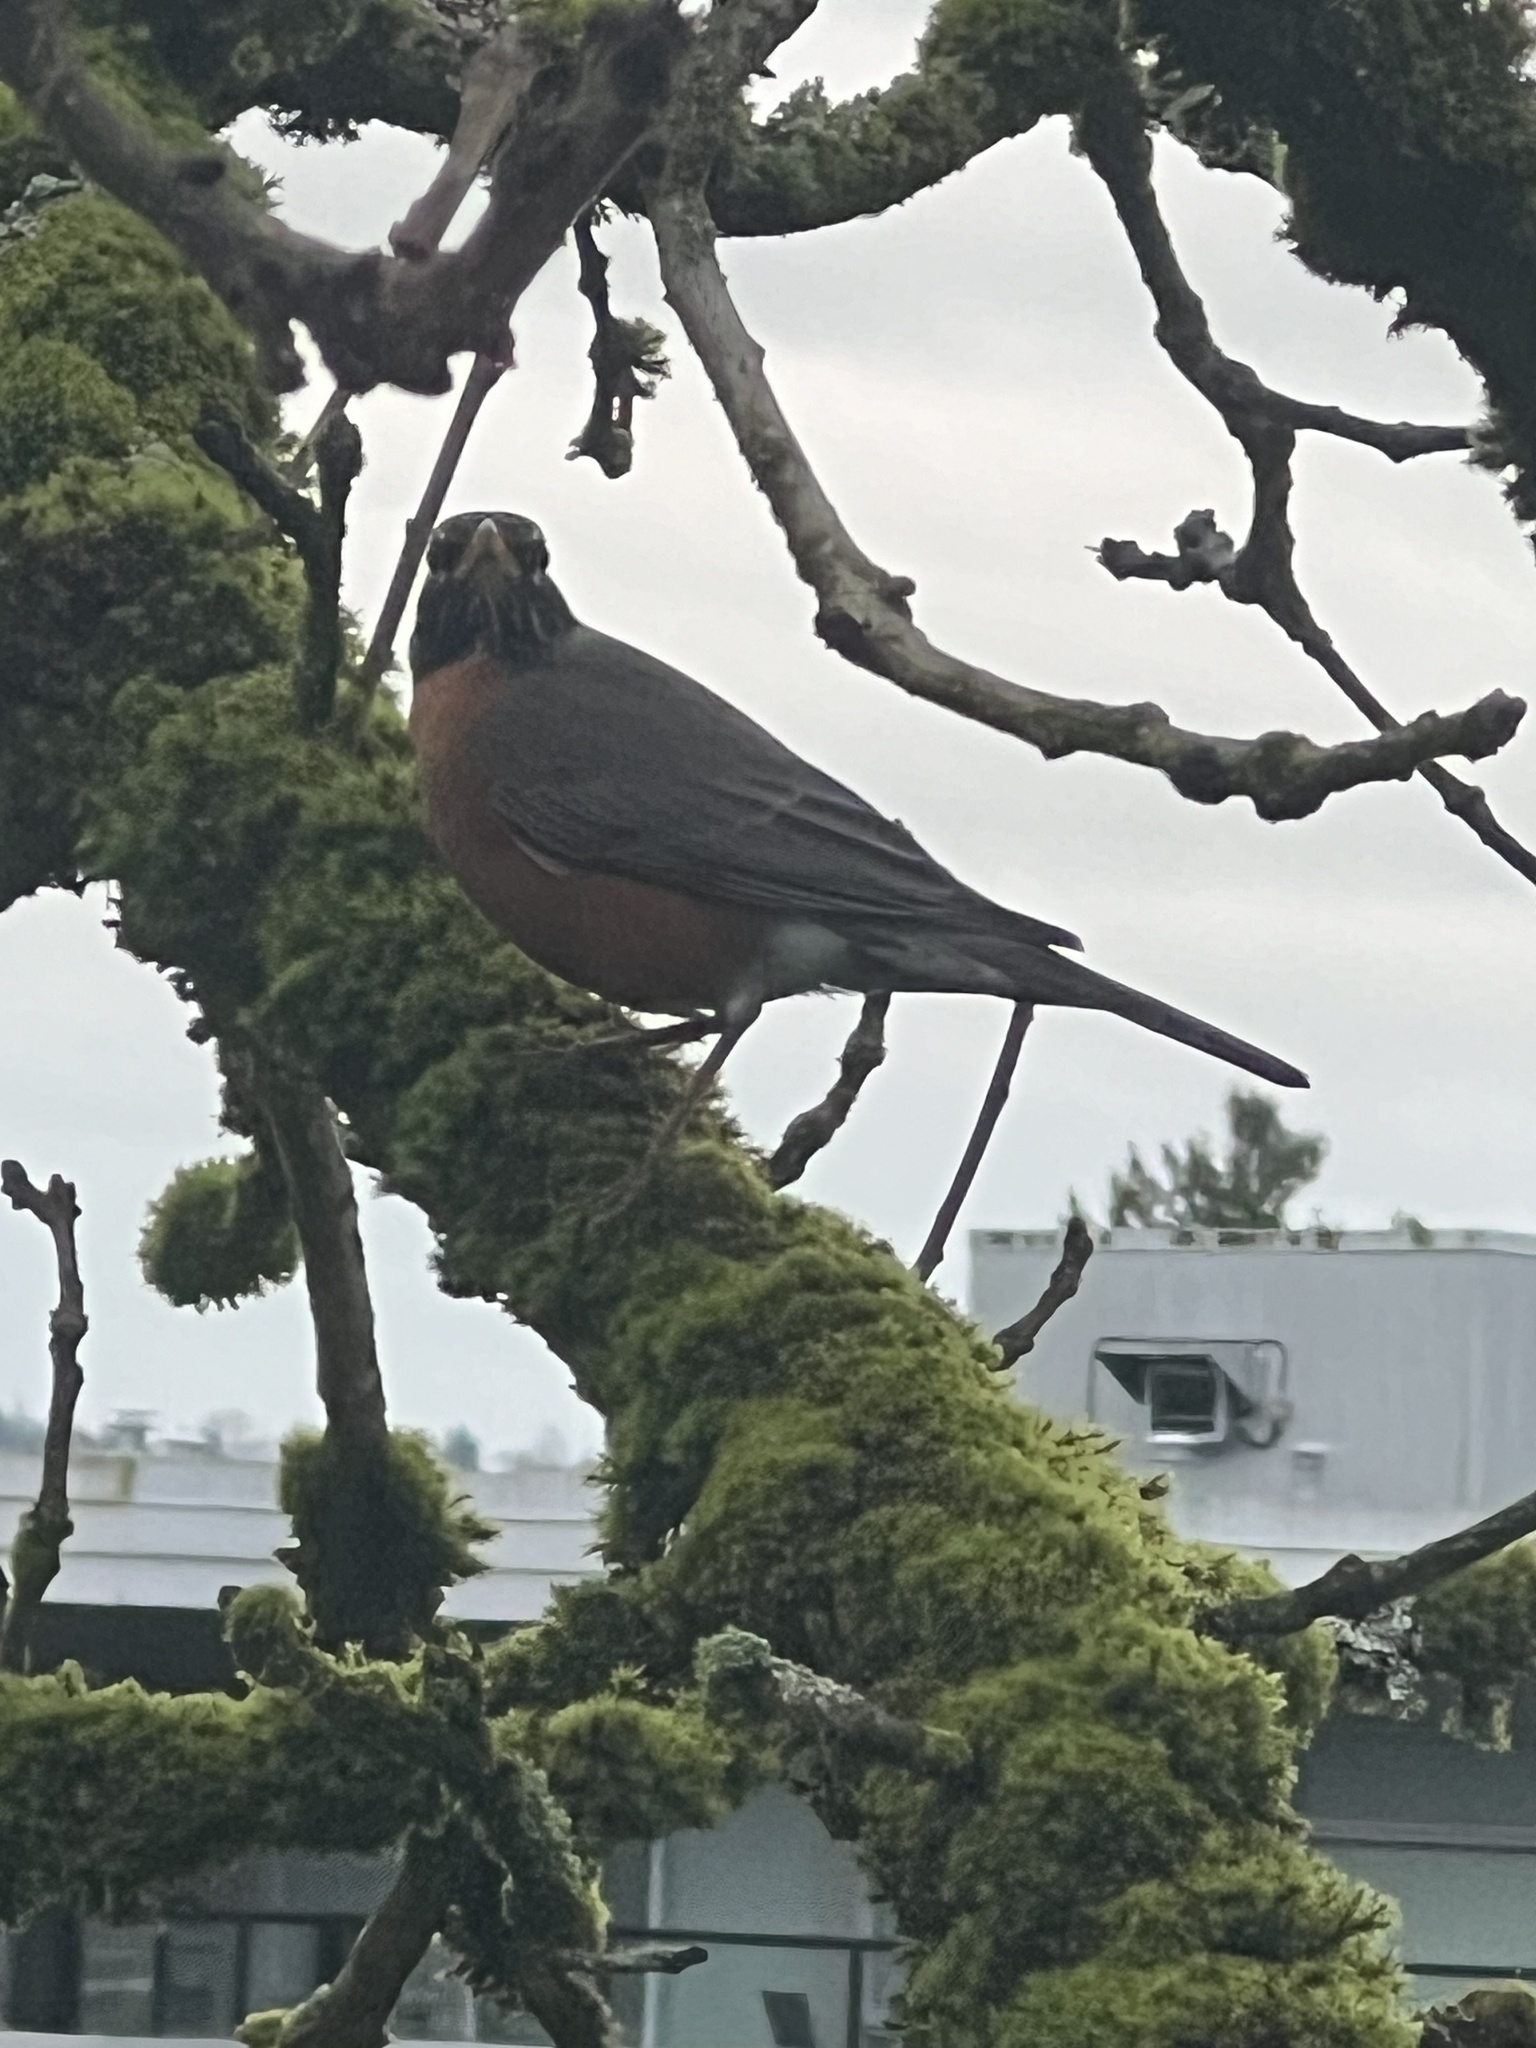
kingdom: Animalia
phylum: Chordata
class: Aves
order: Passeriformes
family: Turdidae
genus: Turdus
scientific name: Turdus migratorius
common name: American robin
